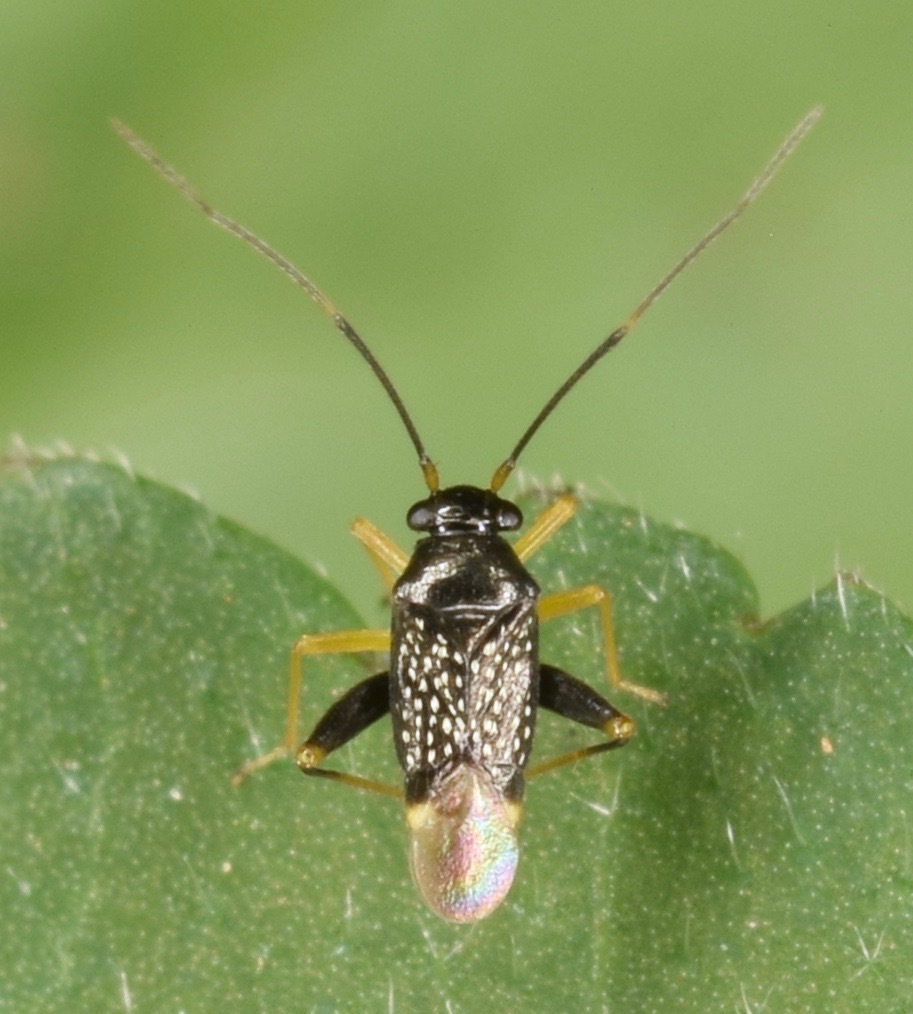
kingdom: Animalia
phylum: Arthropoda
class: Insecta
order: Hemiptera
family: Miridae
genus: Microtechnites
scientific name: Microtechnites bractatus
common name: Garden fleahopper
